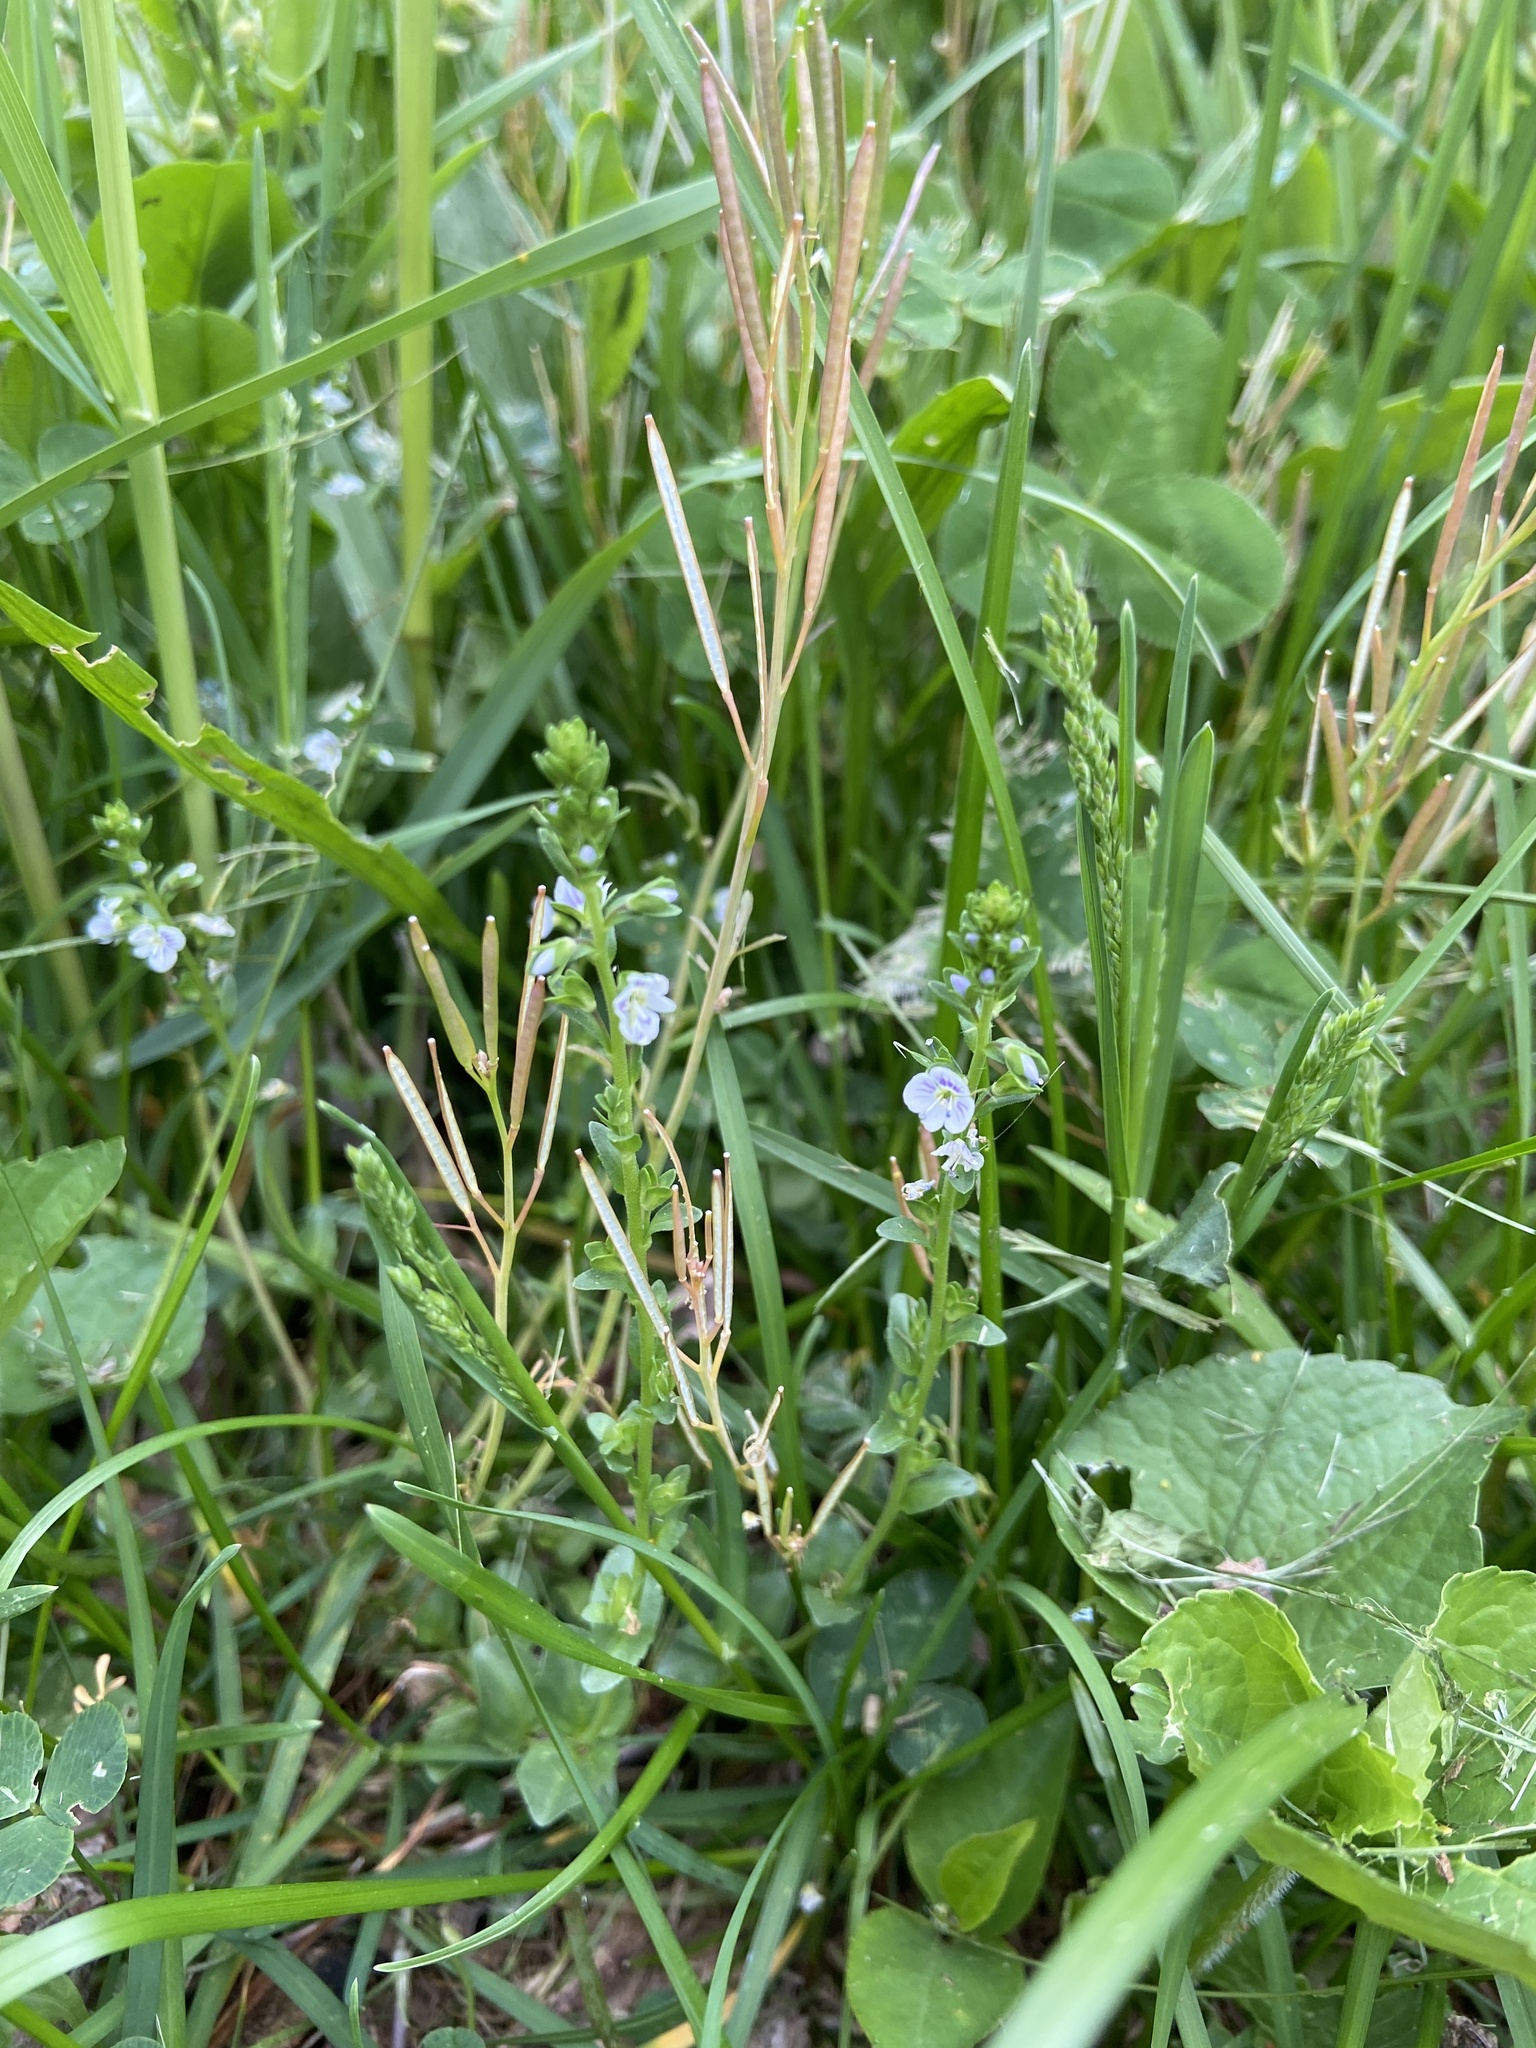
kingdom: Plantae
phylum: Tracheophyta
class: Magnoliopsida
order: Lamiales
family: Plantaginaceae
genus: Veronica
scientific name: Veronica serpyllifolia
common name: Thyme-leaved speedwell
